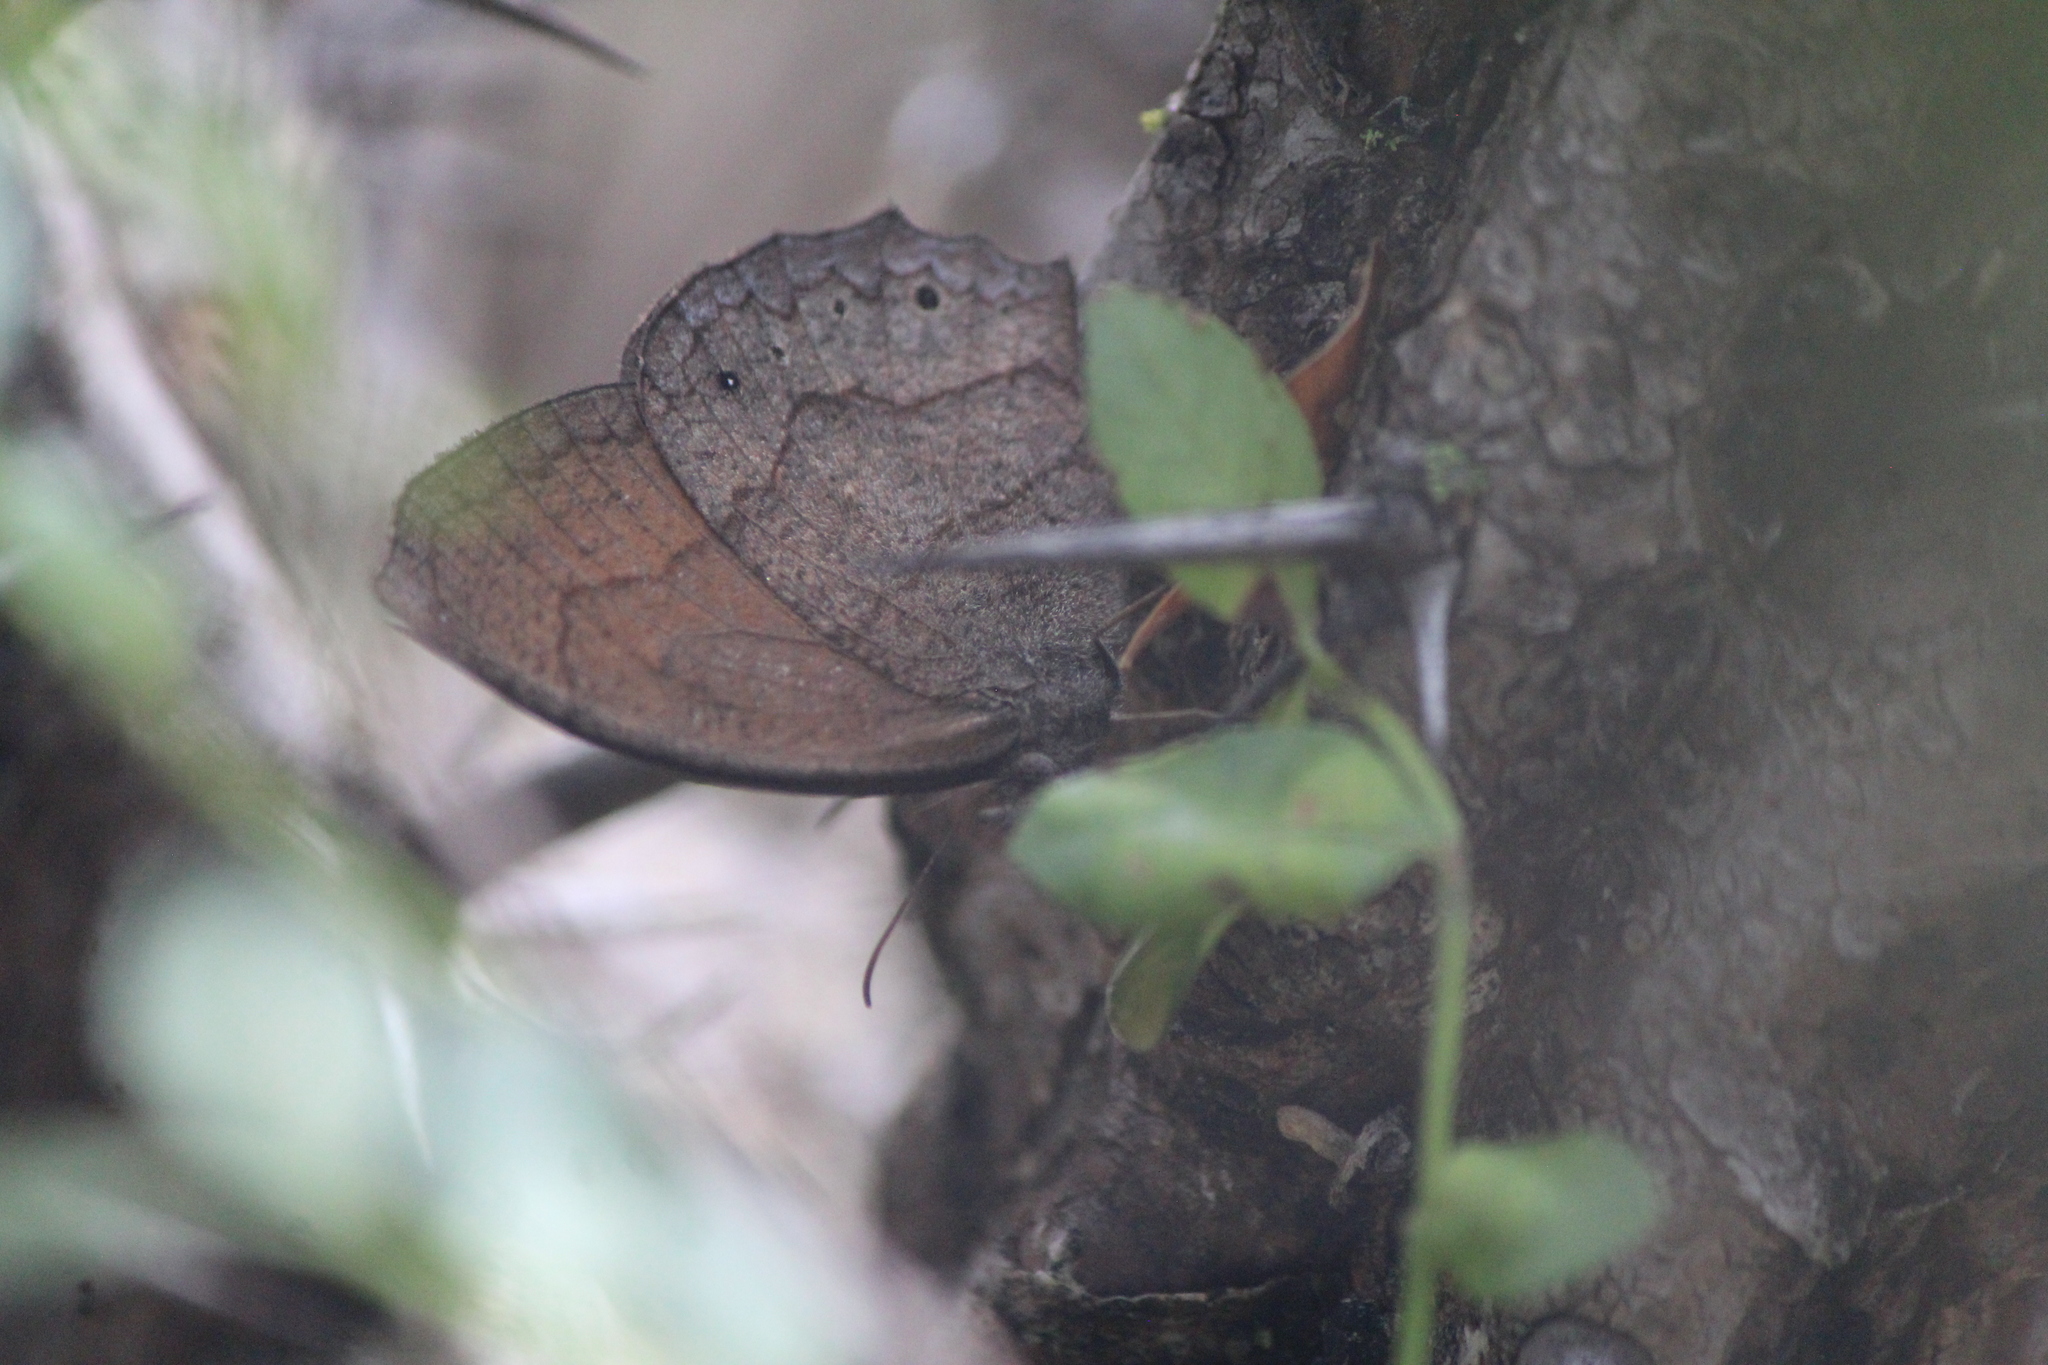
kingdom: Animalia
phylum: Arthropoda
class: Insecta
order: Lepidoptera
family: Nymphalidae
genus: Pindis
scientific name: Pindis squamistriga
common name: Variable satyr
